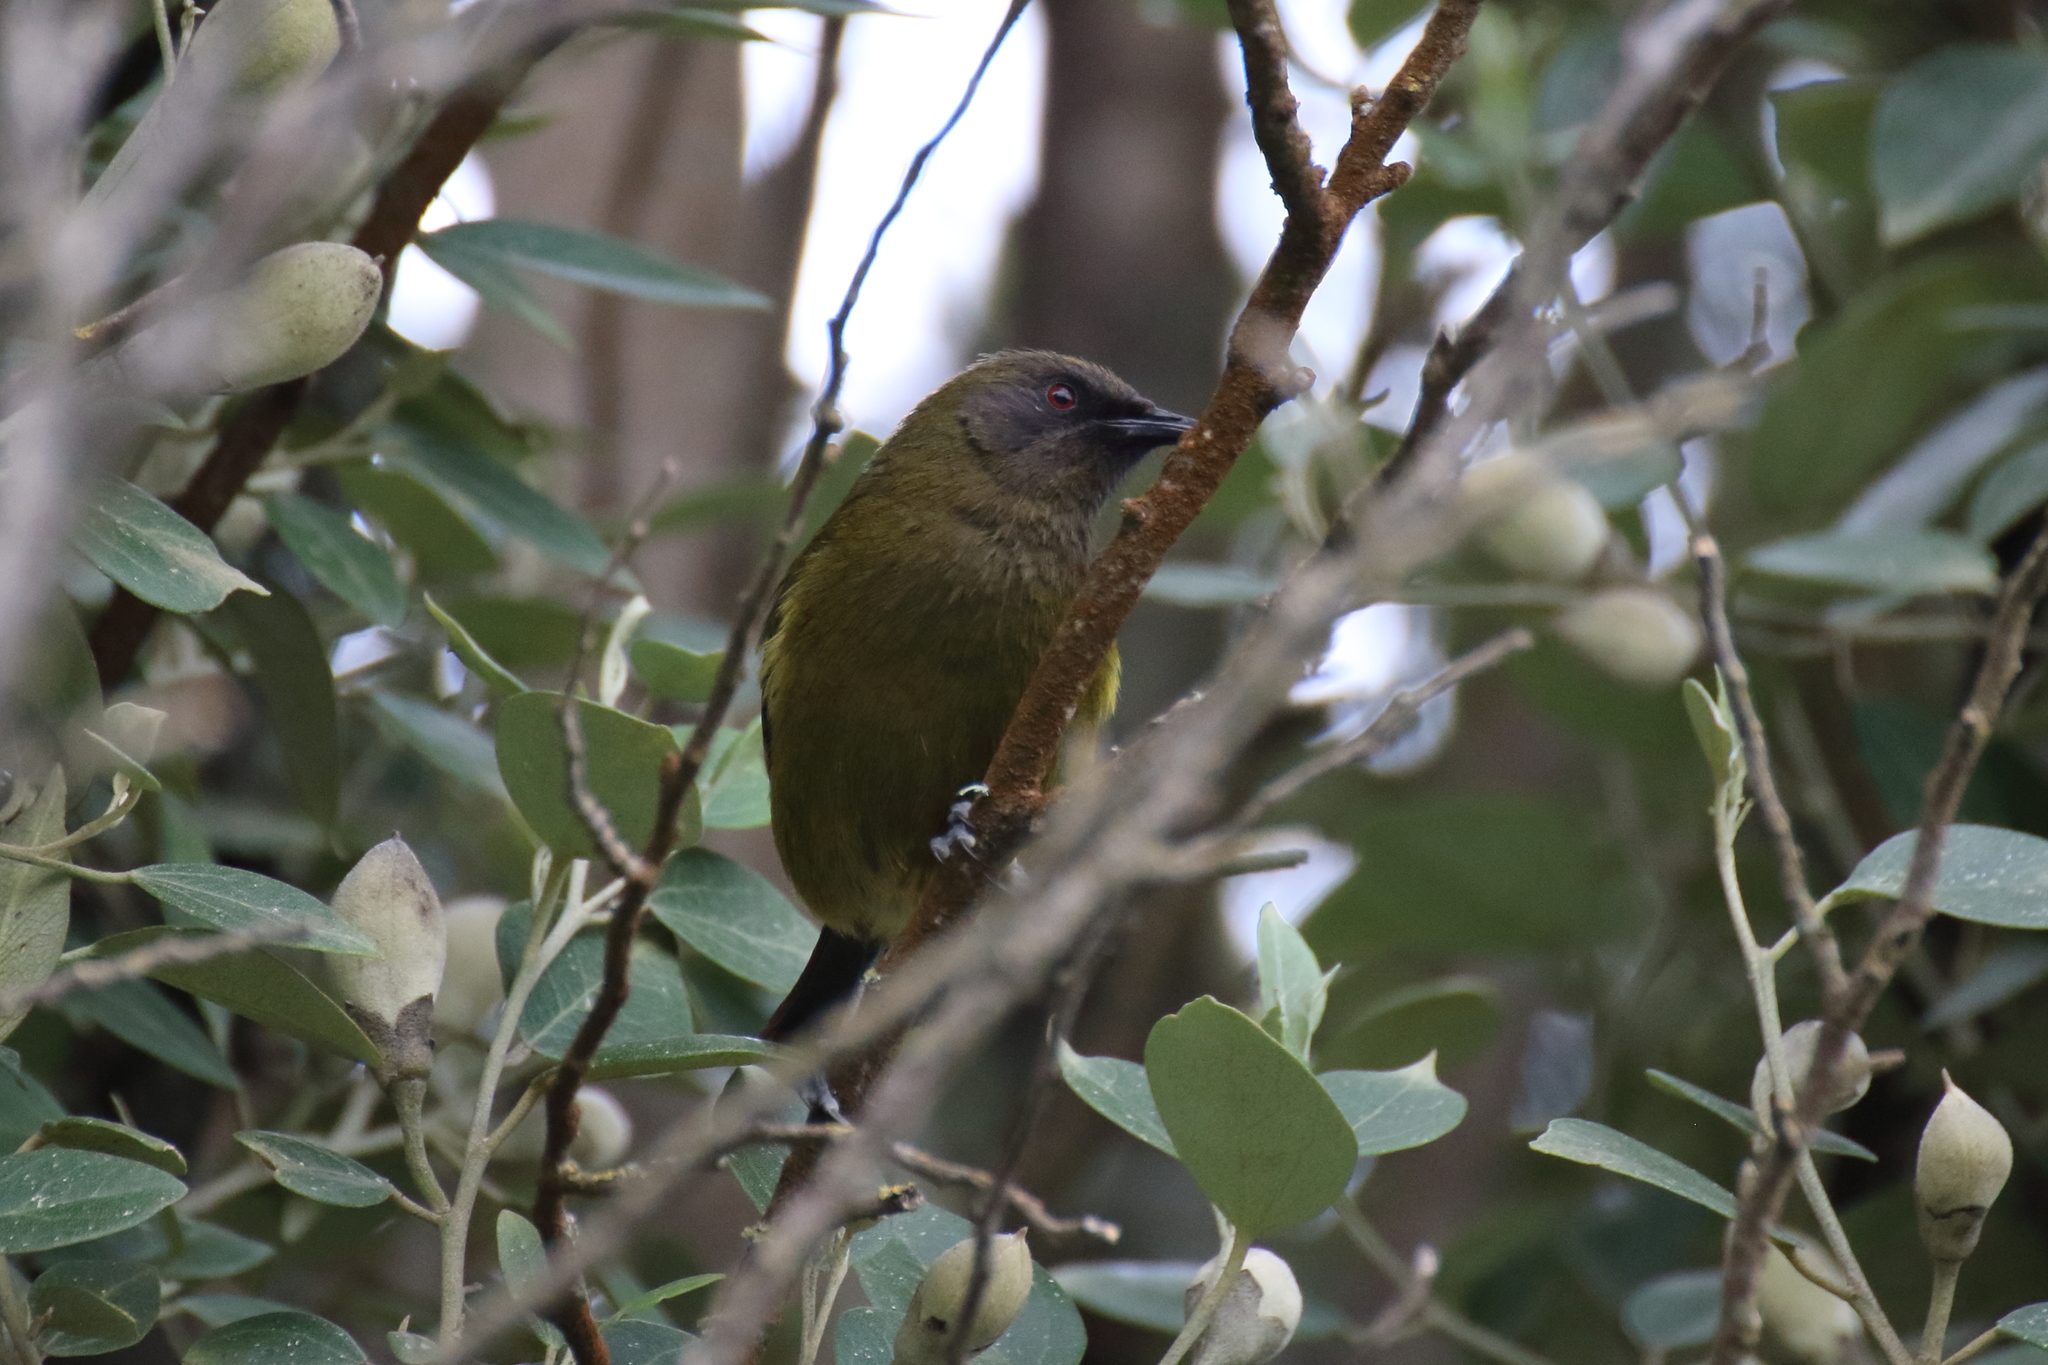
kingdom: Animalia
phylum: Chordata
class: Aves
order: Passeriformes
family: Meliphagidae
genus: Anthornis
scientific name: Anthornis melanura
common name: New zealand bellbird
